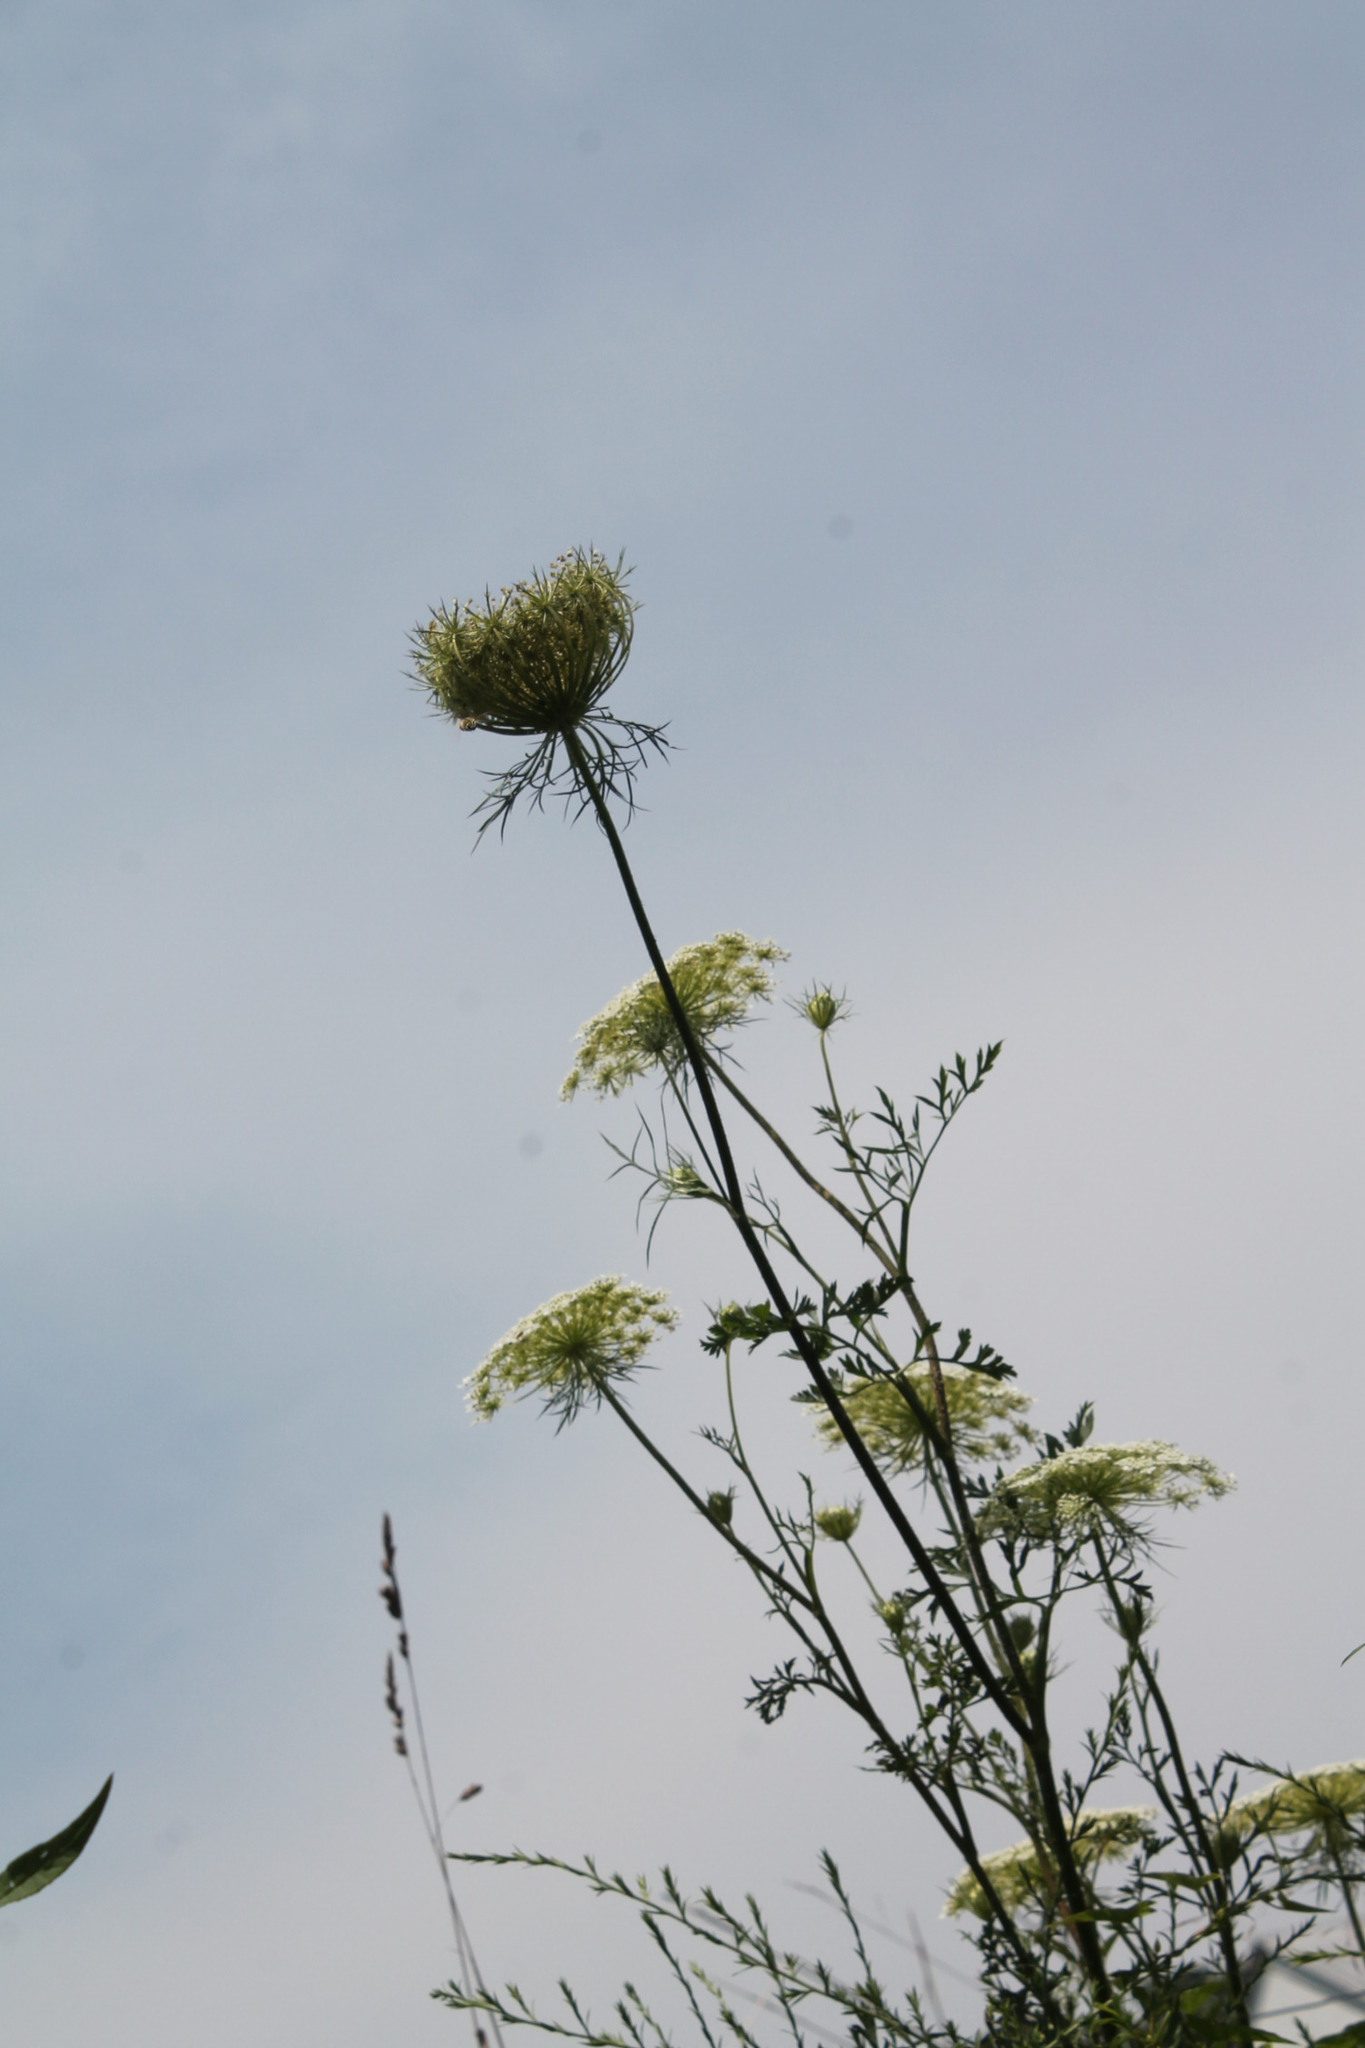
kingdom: Plantae
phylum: Tracheophyta
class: Magnoliopsida
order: Apiales
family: Apiaceae
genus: Daucus
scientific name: Daucus carota
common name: Wild carrot
